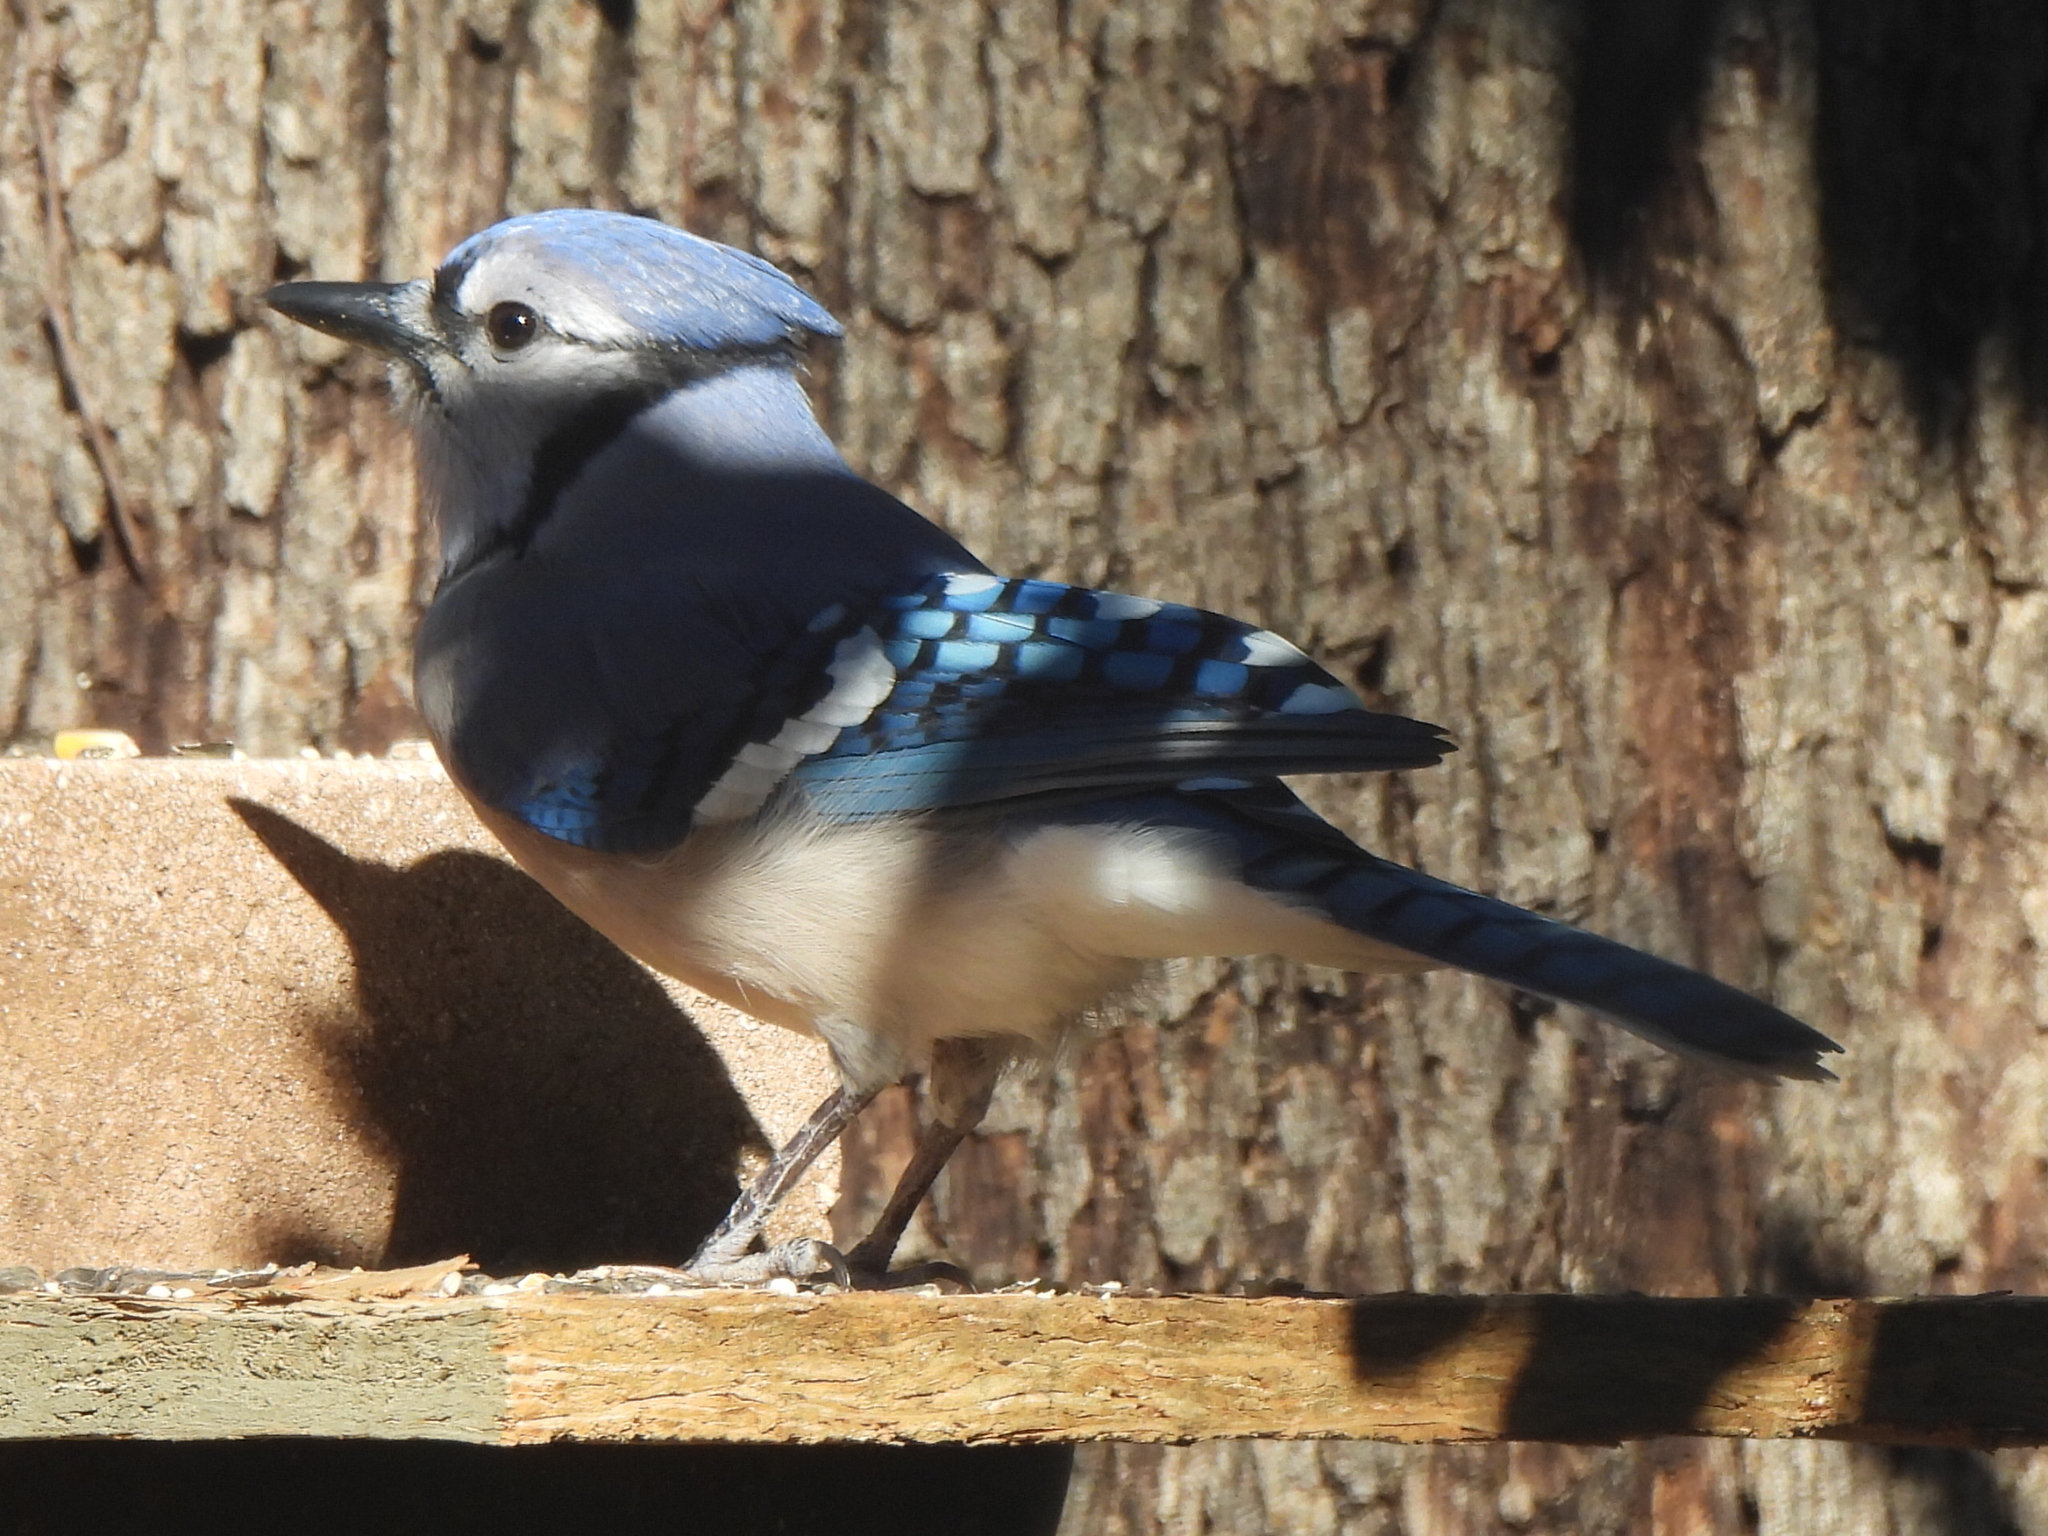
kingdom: Animalia
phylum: Chordata
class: Aves
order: Passeriformes
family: Corvidae
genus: Cyanocitta
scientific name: Cyanocitta cristata
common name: Blue jay
